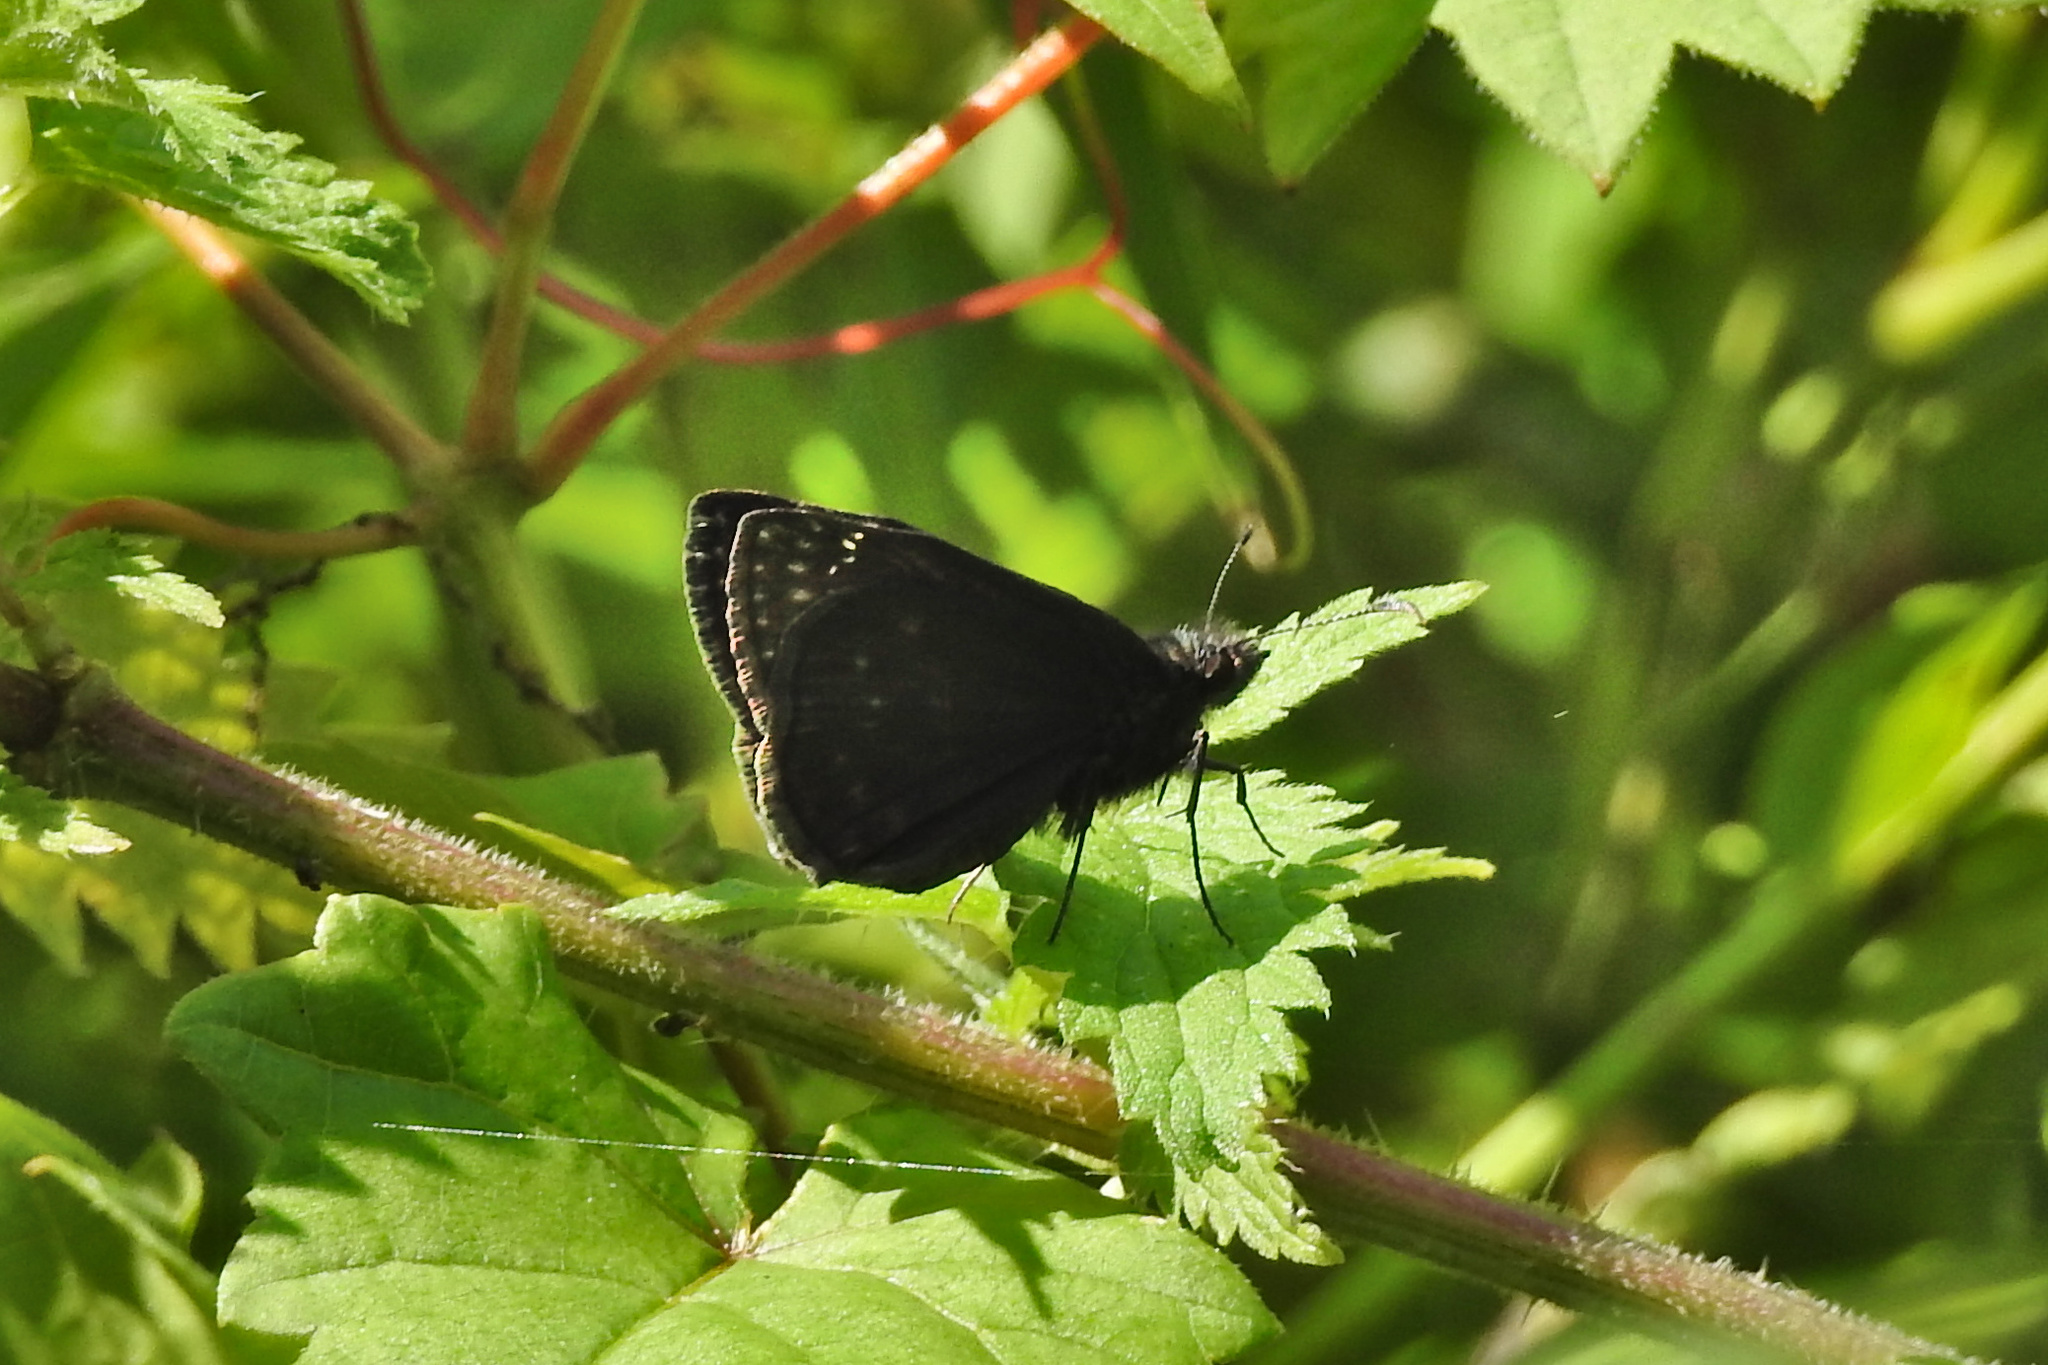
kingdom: Animalia
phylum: Arthropoda
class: Insecta
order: Lepidoptera
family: Hesperiidae
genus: Pholisora
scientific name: Pholisora catullus
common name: Common sootywing
